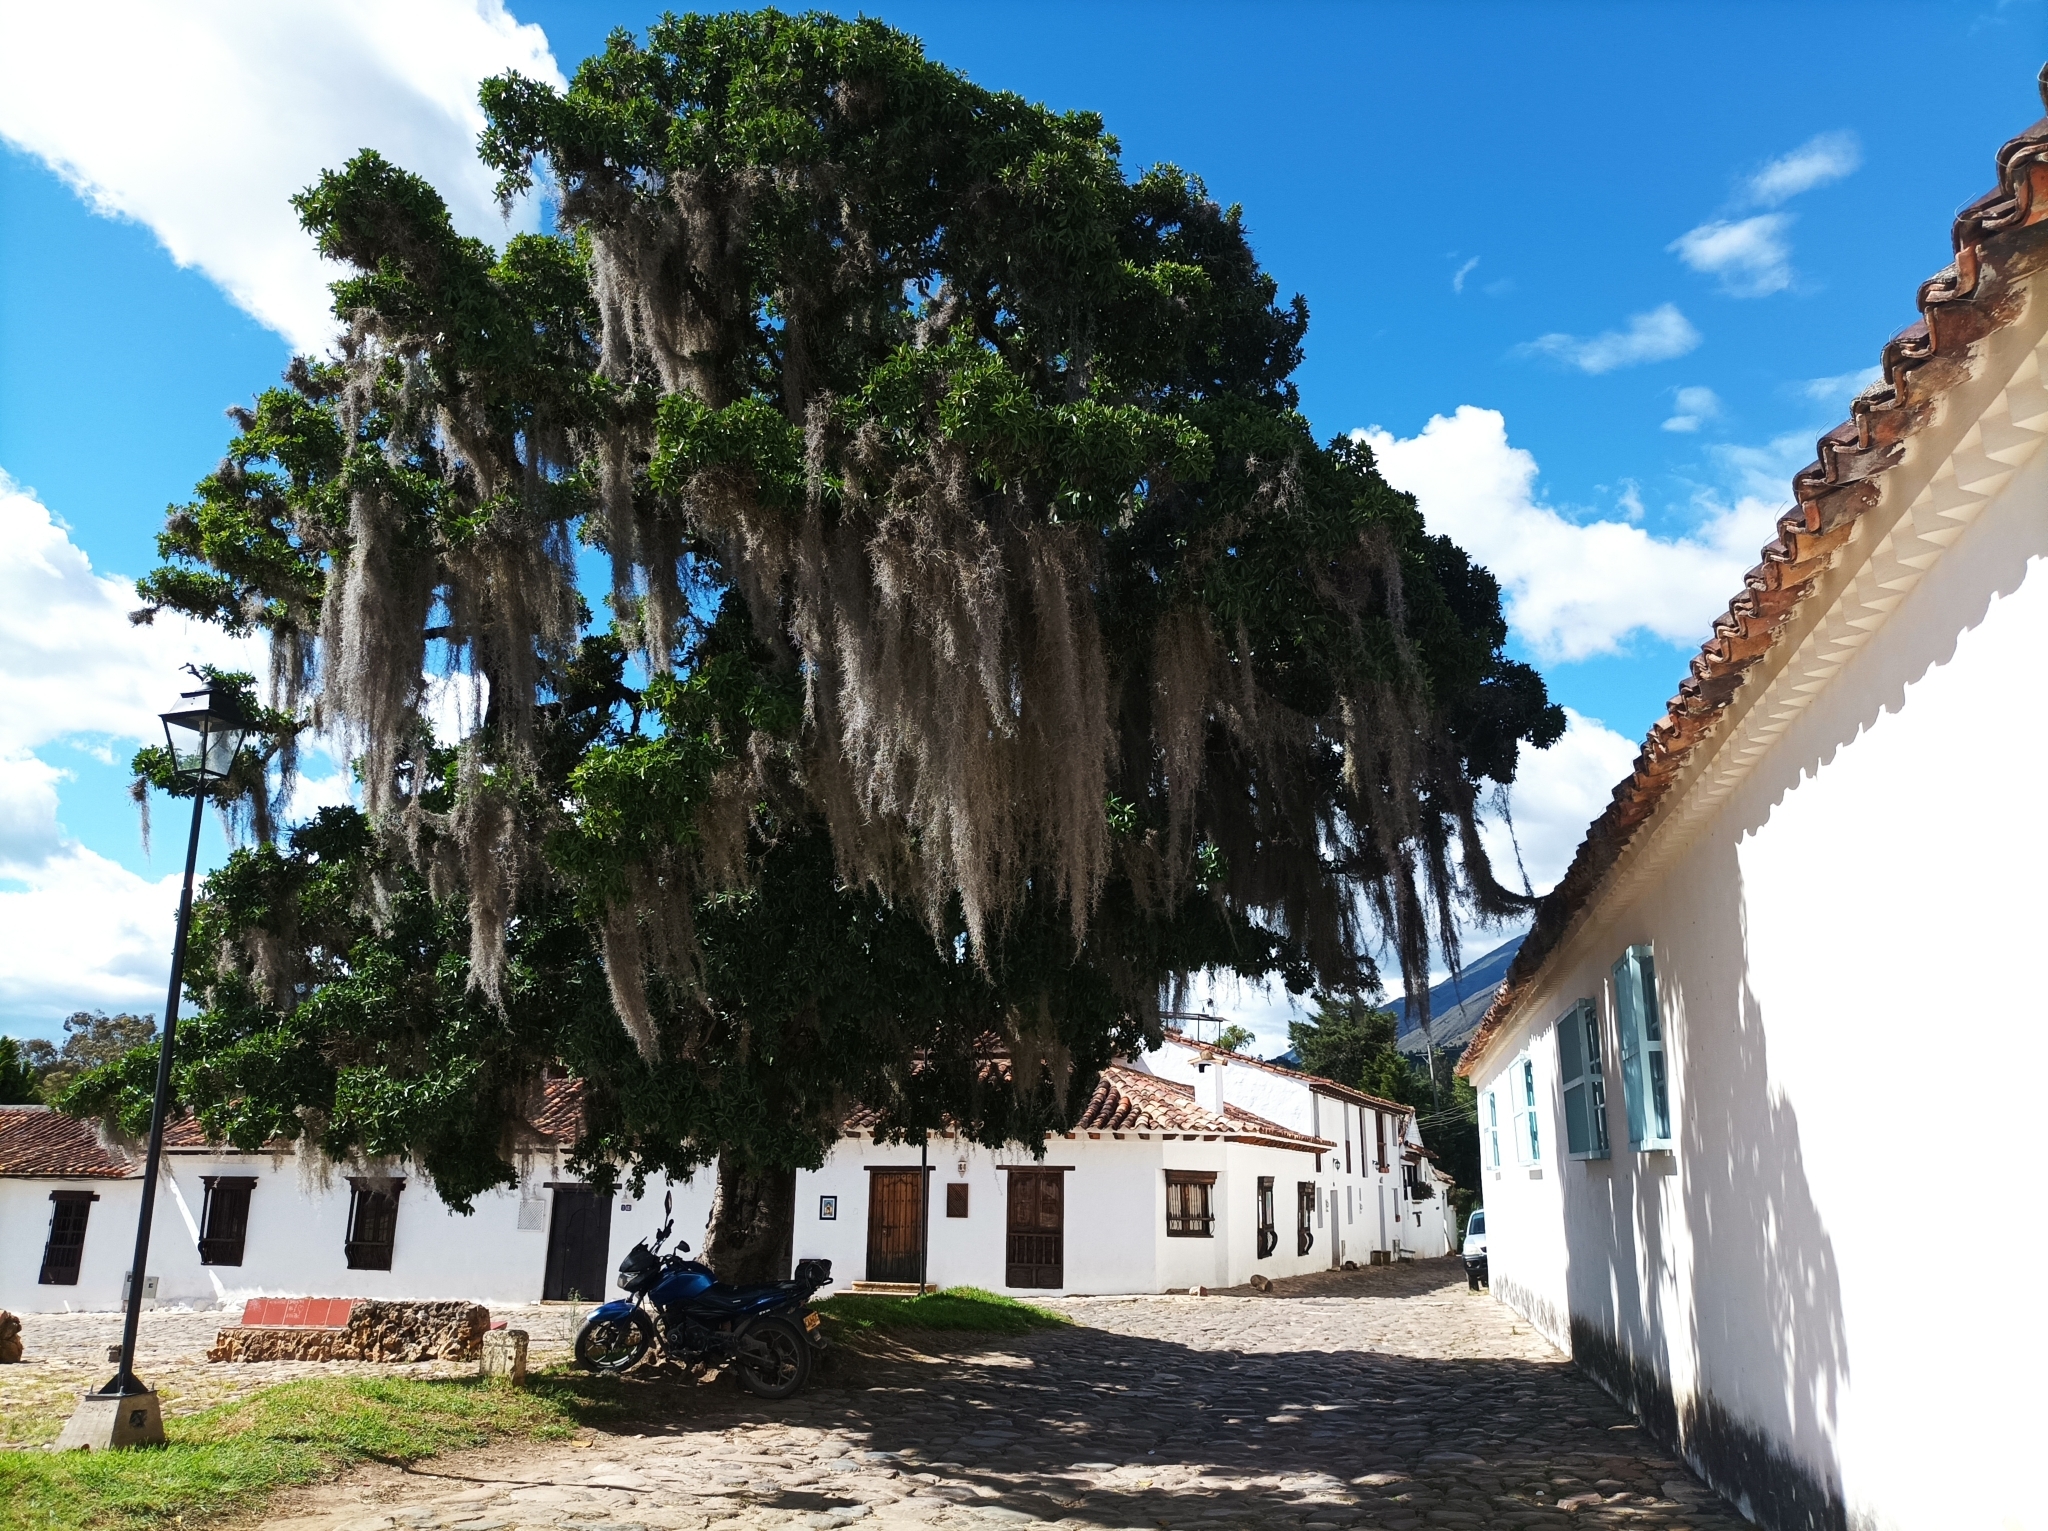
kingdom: Plantae
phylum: Tracheophyta
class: Liliopsida
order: Poales
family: Bromeliaceae
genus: Tillandsia
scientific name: Tillandsia usneoides
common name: Spanish moss
